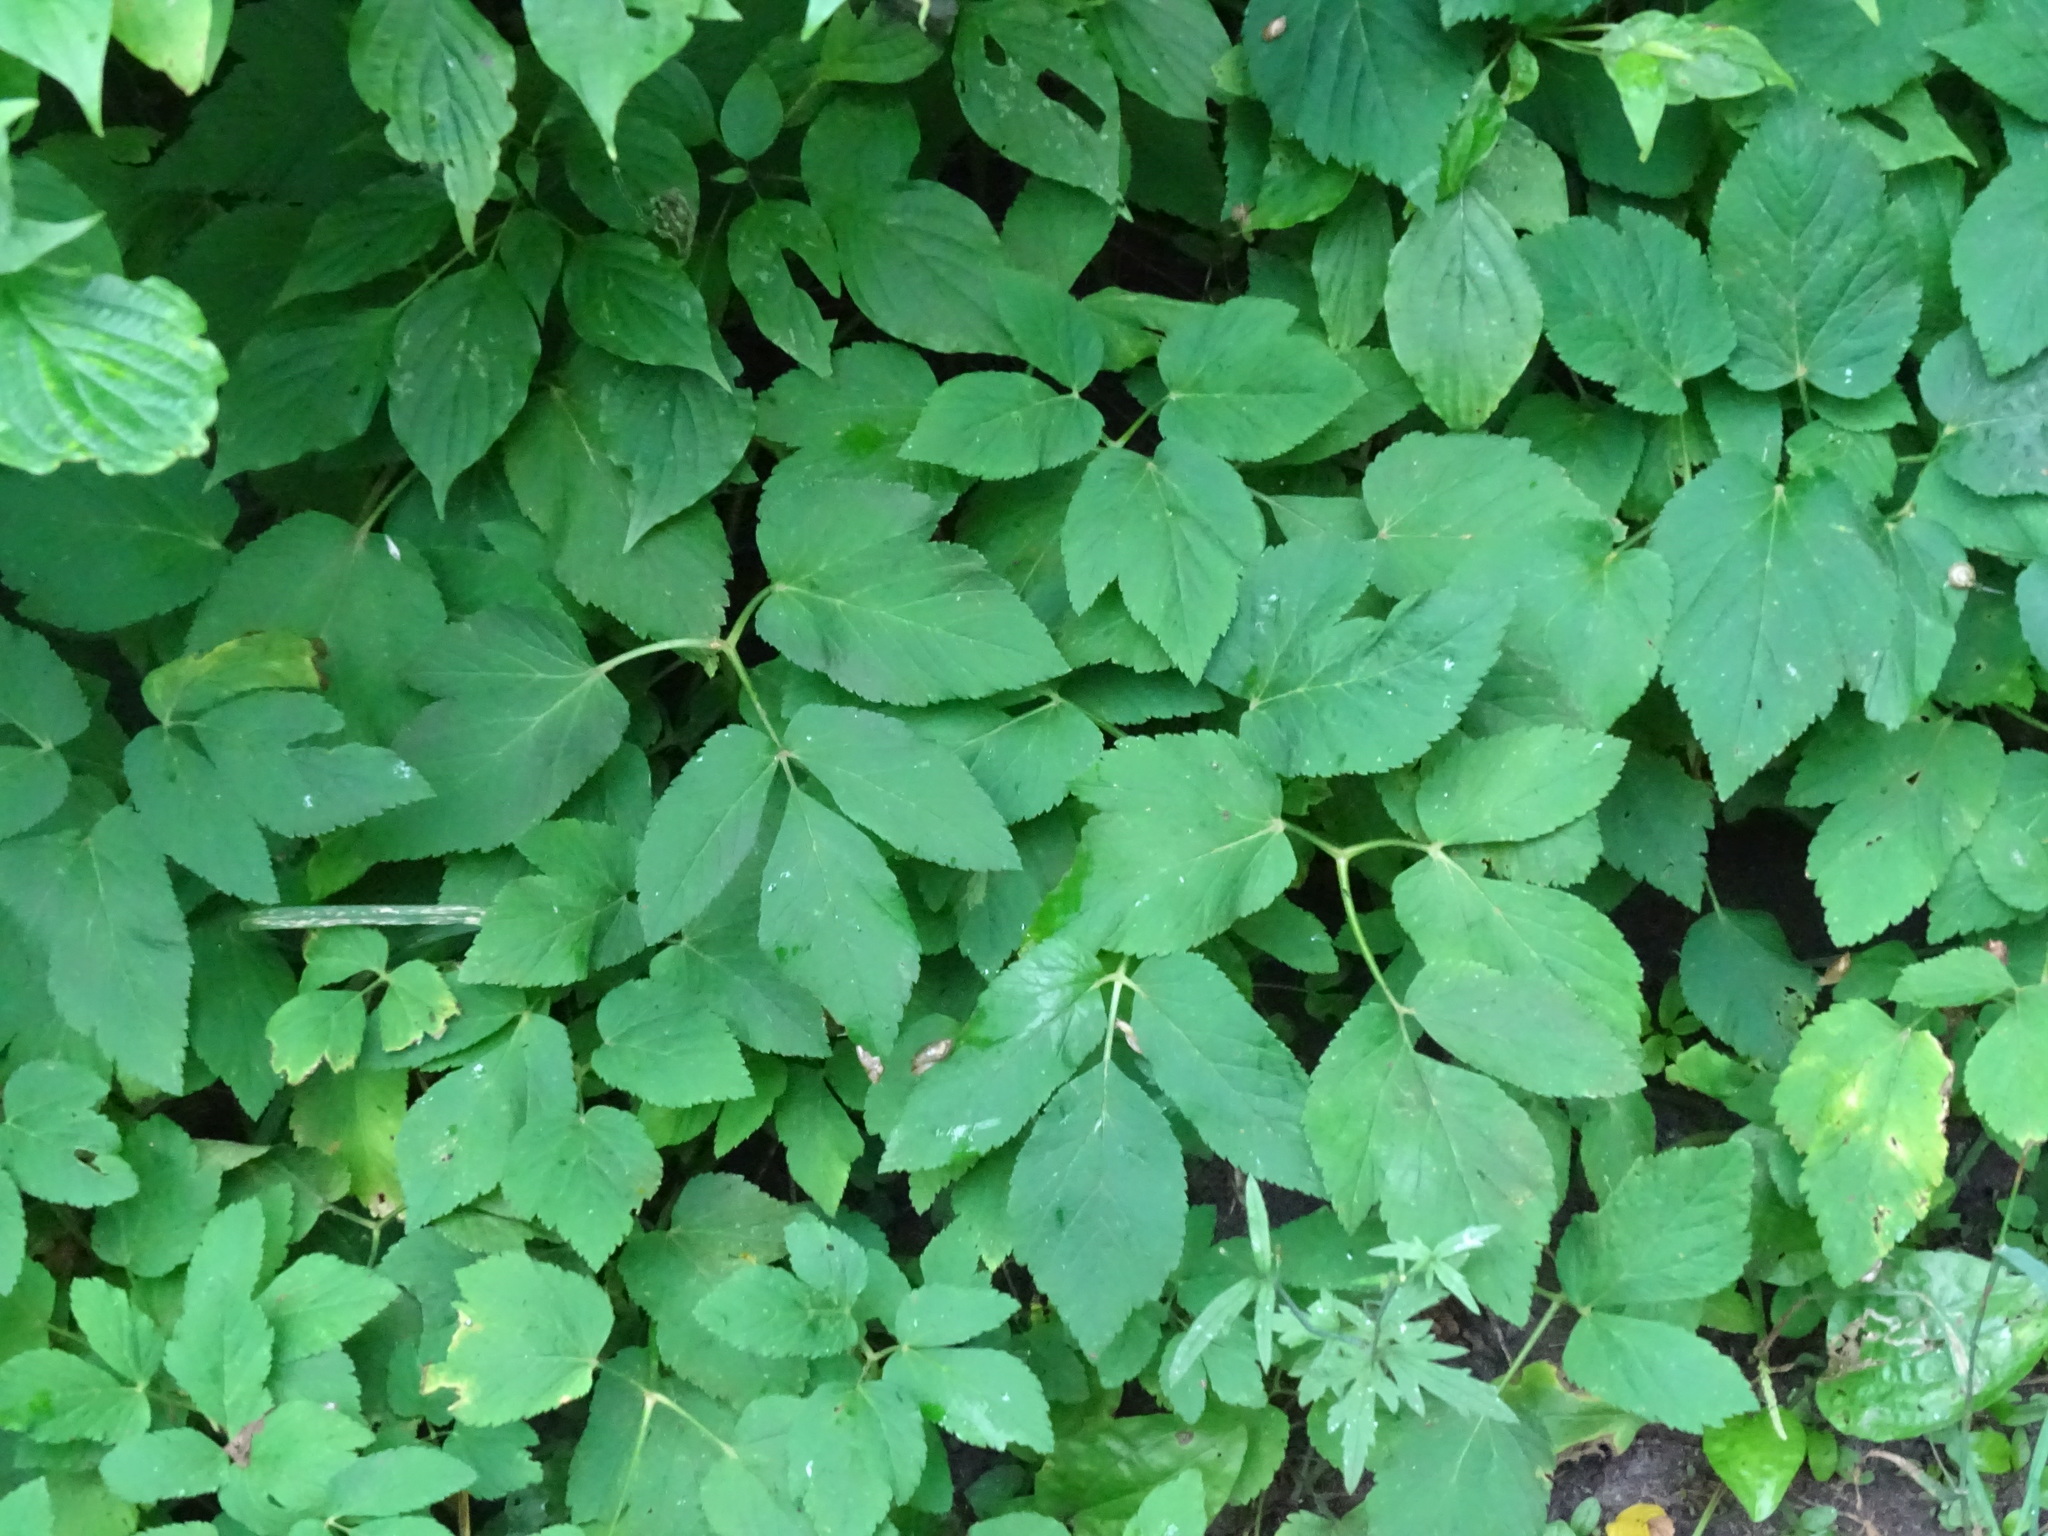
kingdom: Plantae
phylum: Tracheophyta
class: Magnoliopsida
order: Apiales
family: Apiaceae
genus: Aegopodium
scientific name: Aegopodium podagraria
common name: Ground-elder
